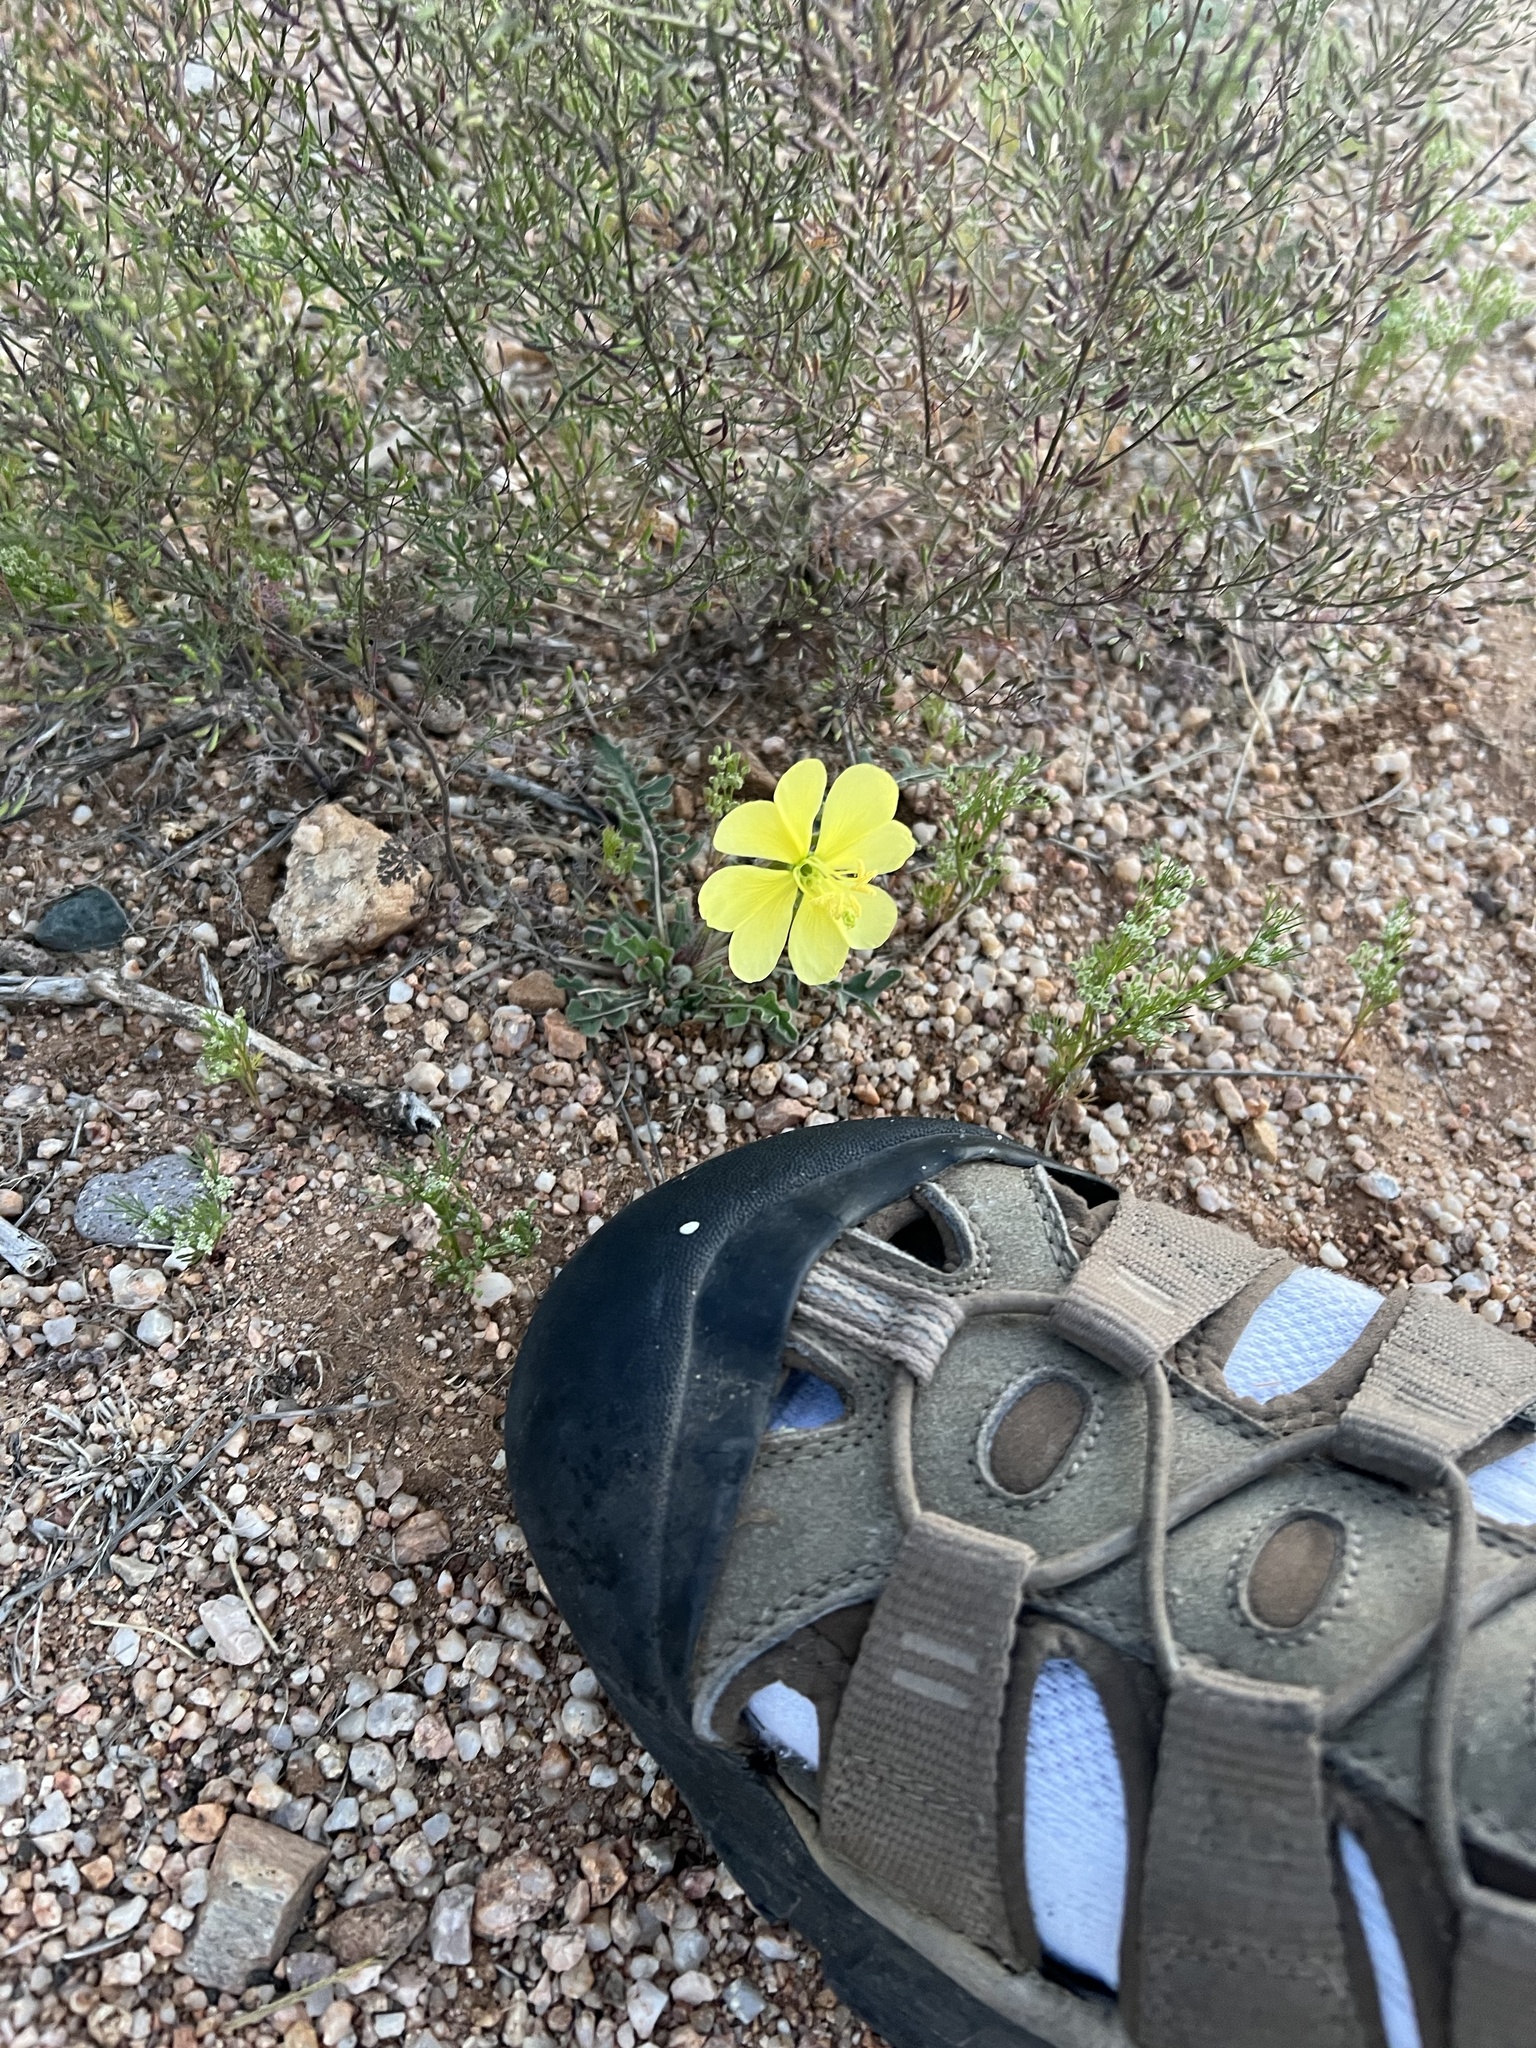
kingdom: Plantae
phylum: Tracheophyta
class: Magnoliopsida
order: Myrtales
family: Onagraceae
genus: Oenothera
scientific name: Oenothera primiveris
